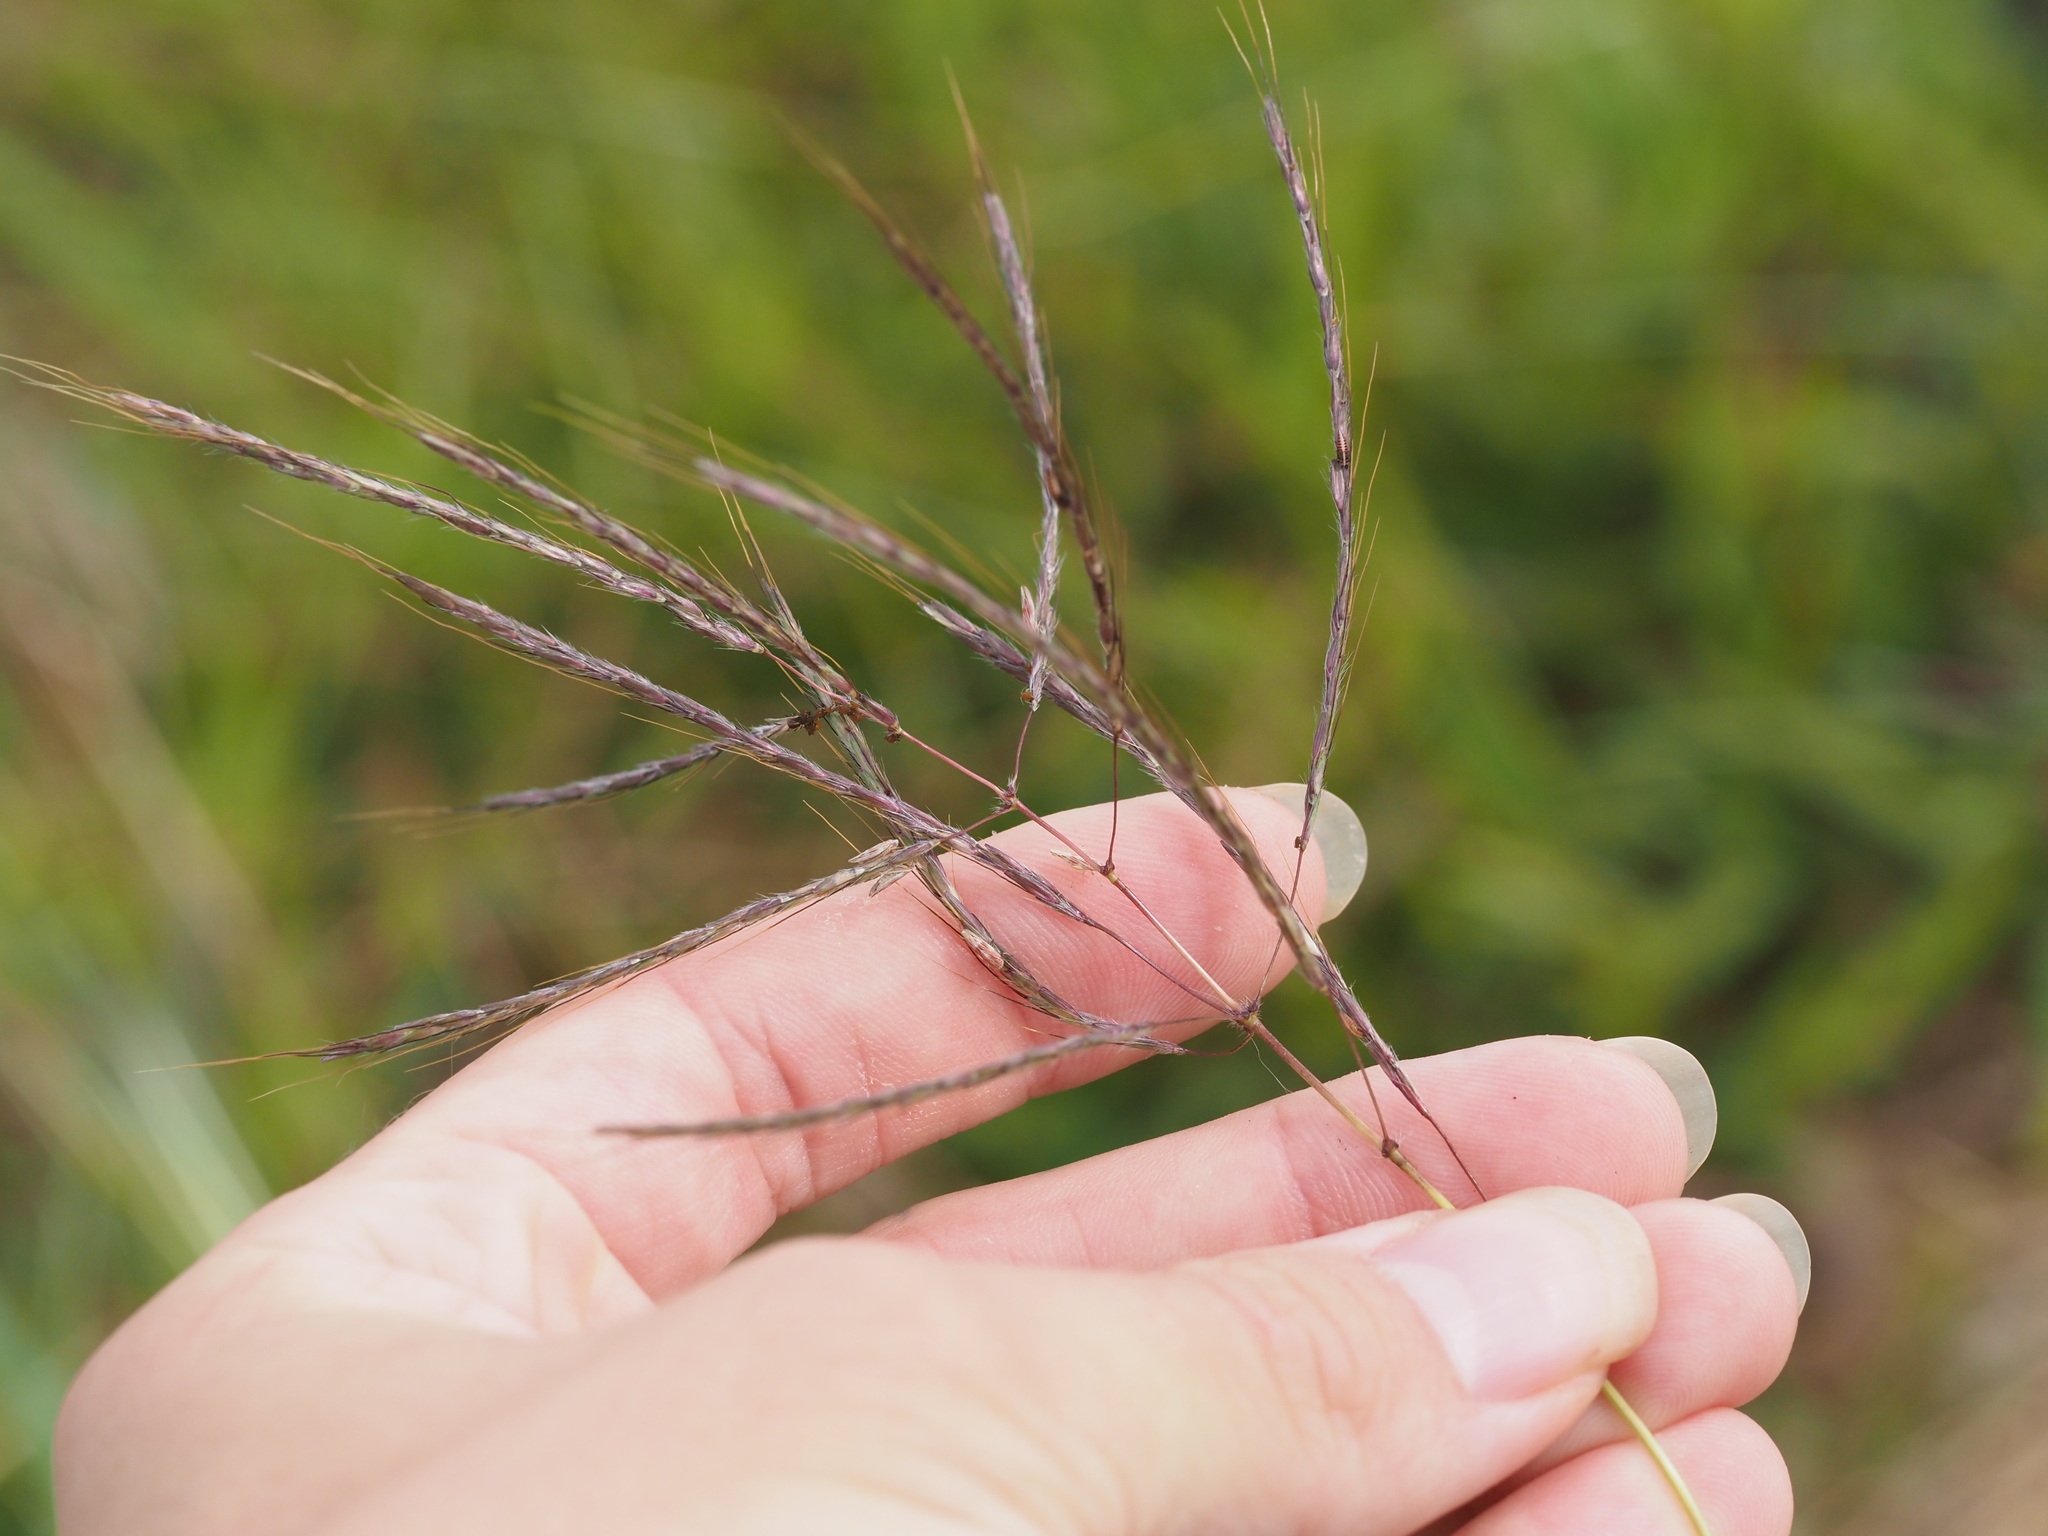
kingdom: Plantae
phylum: Tracheophyta
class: Liliopsida
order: Poales
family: Poaceae
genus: Dichanthium
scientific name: Dichanthium annulatum
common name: Kleberg's bluestem
